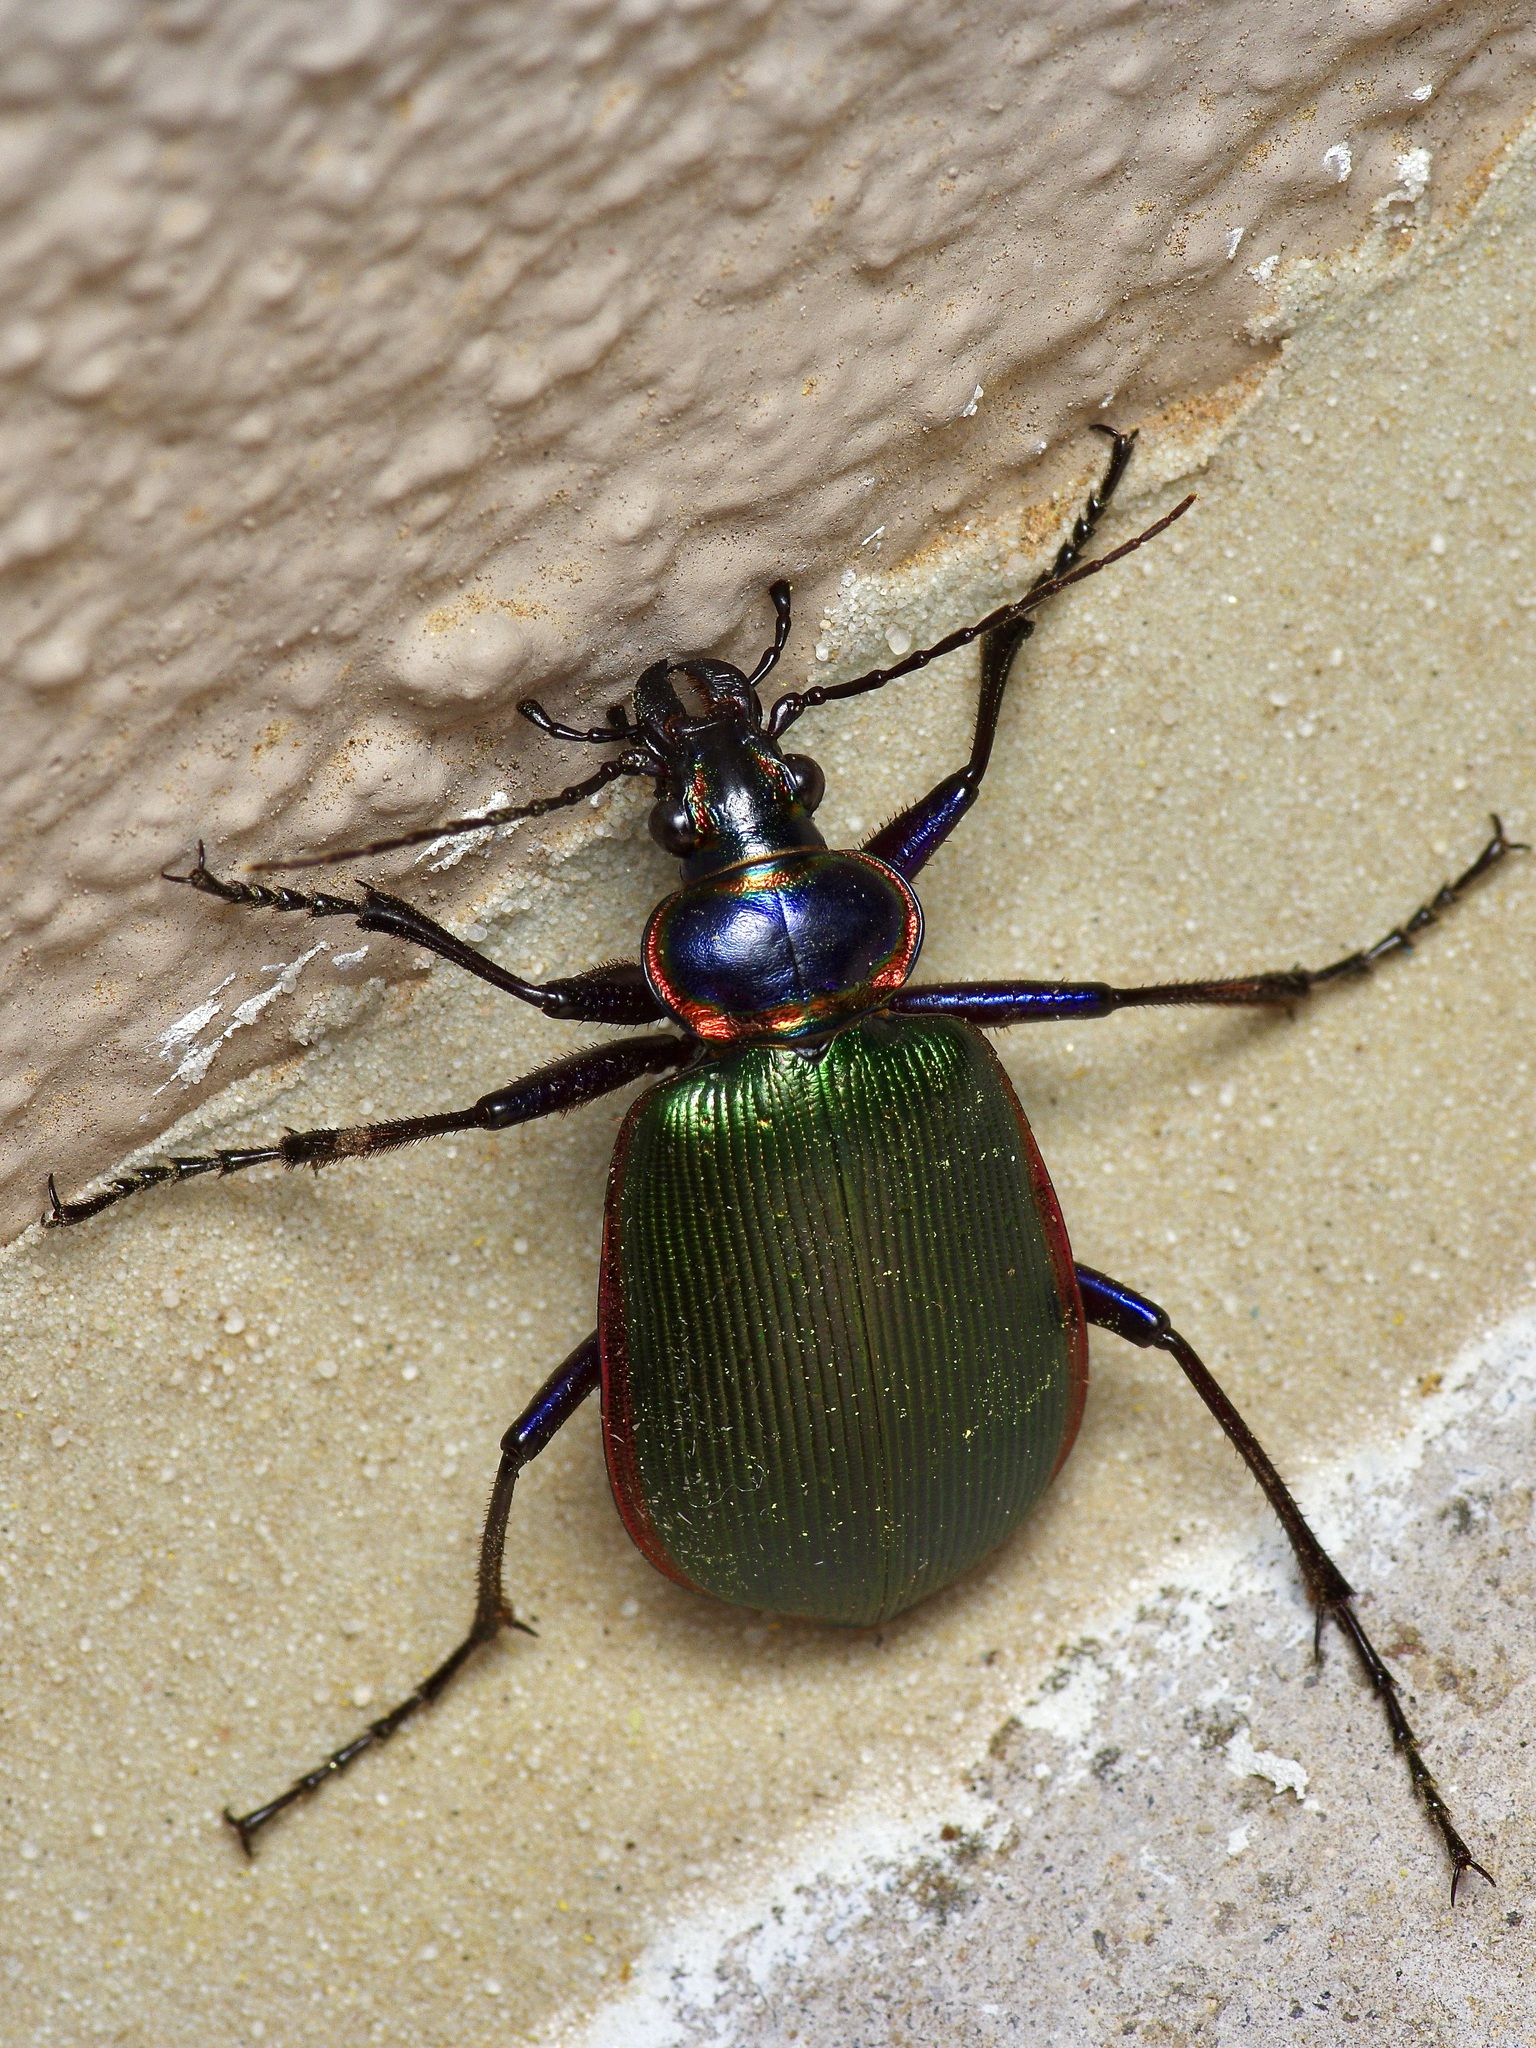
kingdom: Animalia
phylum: Arthropoda
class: Insecta
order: Coleoptera
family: Carabidae
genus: Calosoma
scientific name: Calosoma scrutator
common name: Fiery searcher beetle
